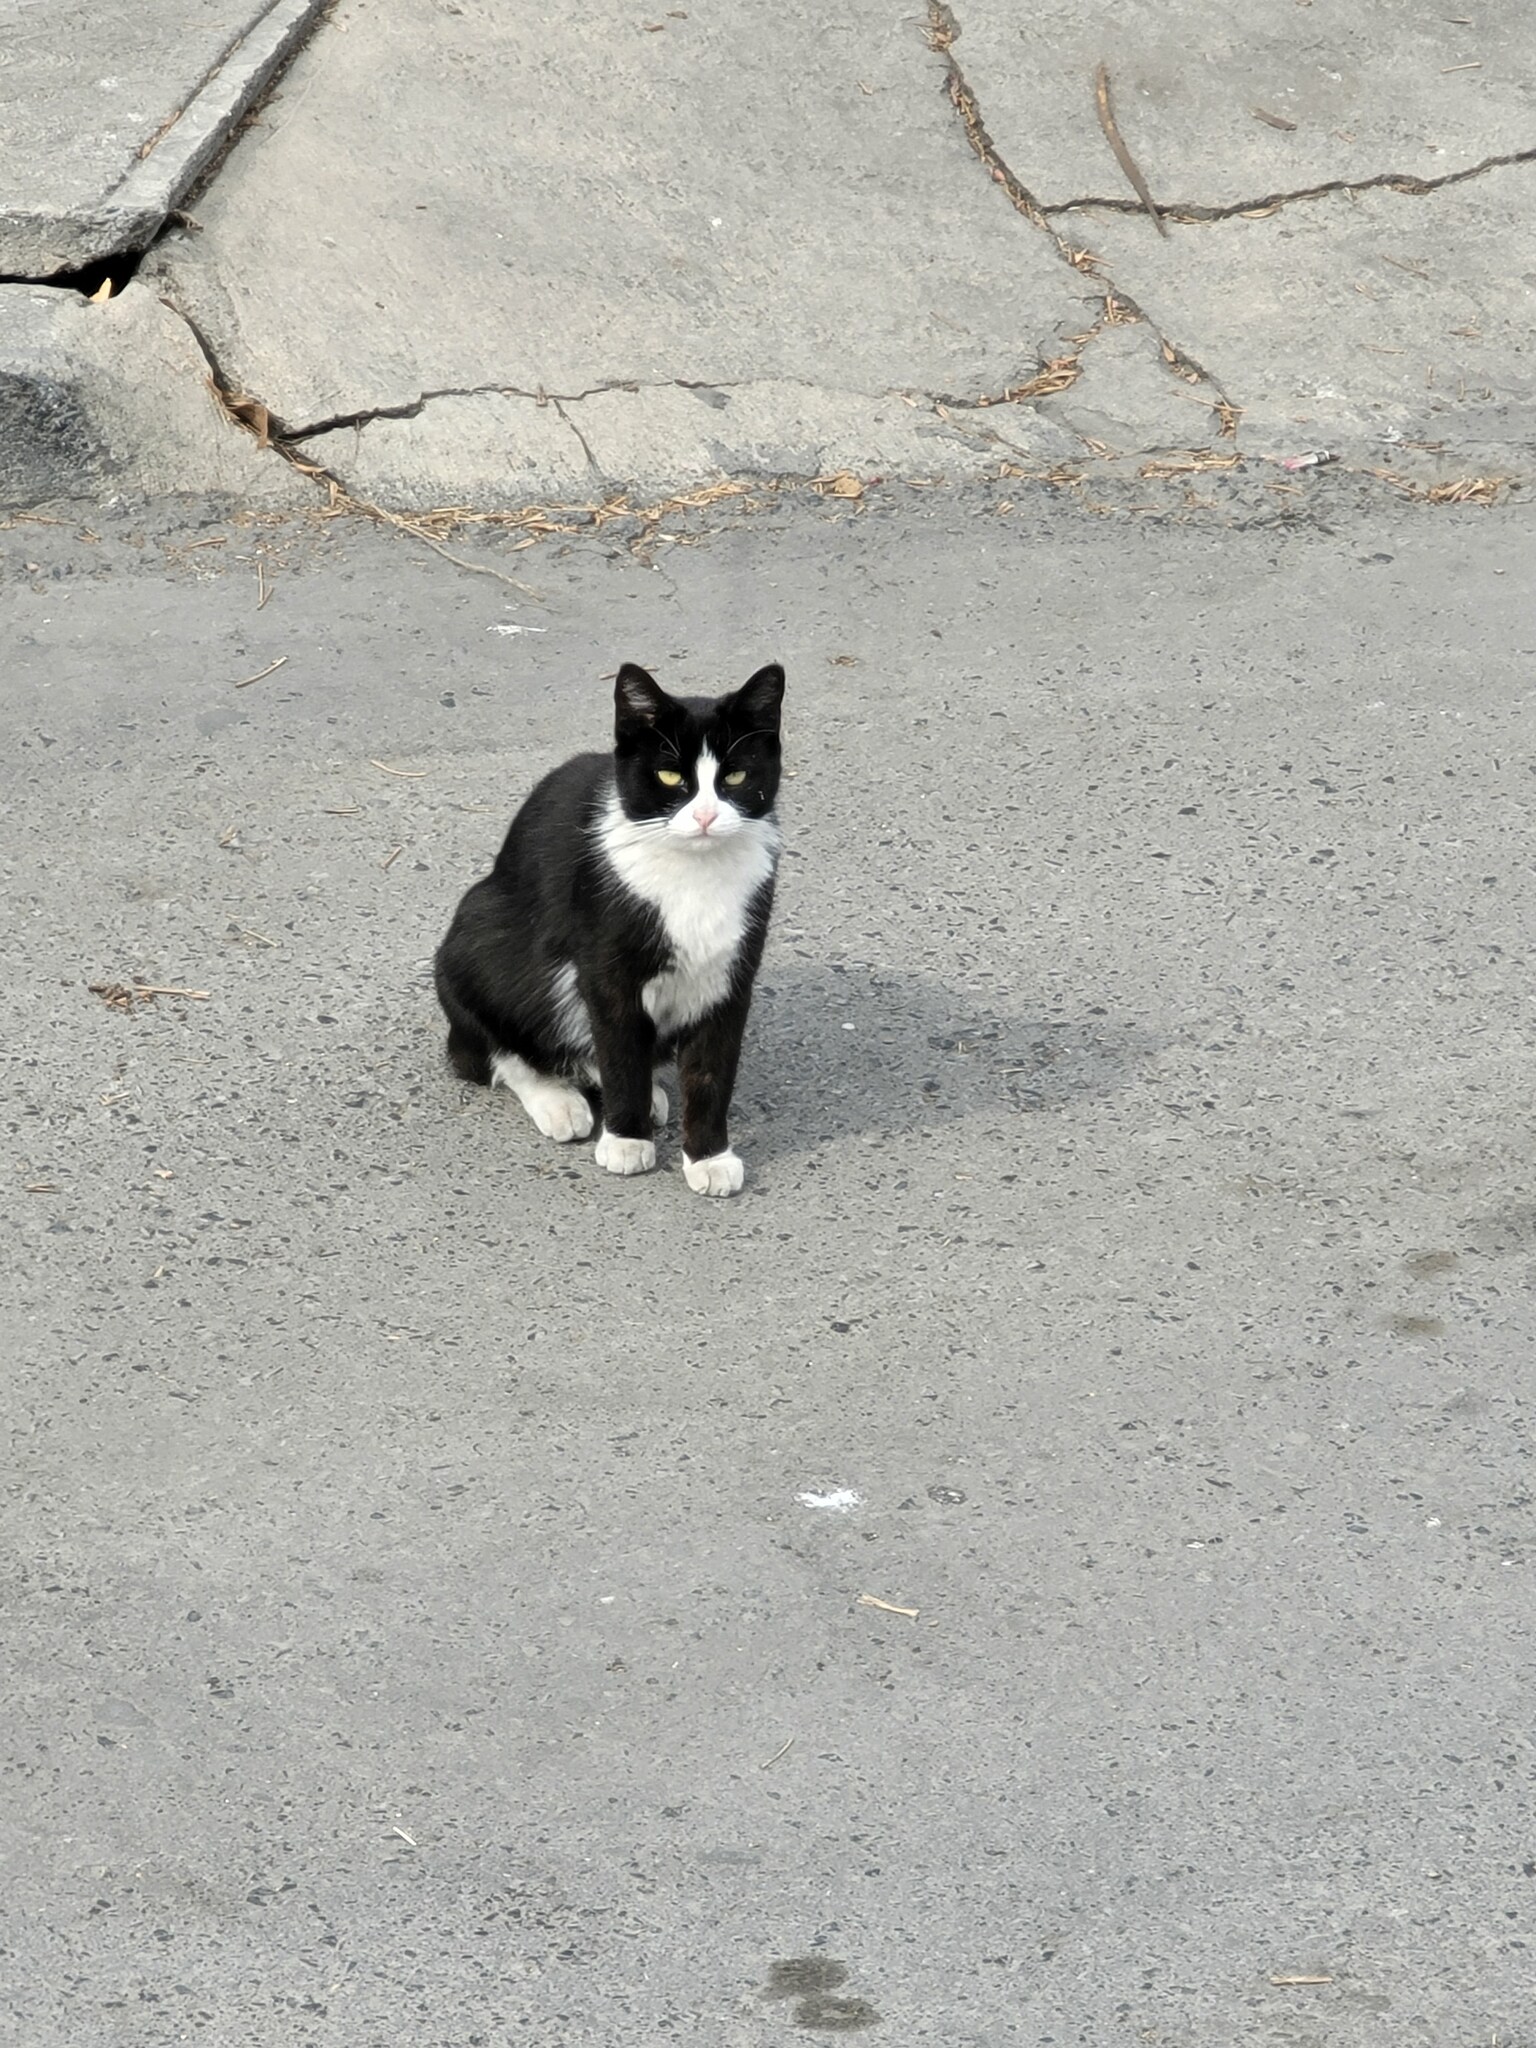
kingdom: Animalia
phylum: Chordata
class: Mammalia
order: Carnivora
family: Felidae
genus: Felis
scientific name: Felis catus
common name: Domestic cat
